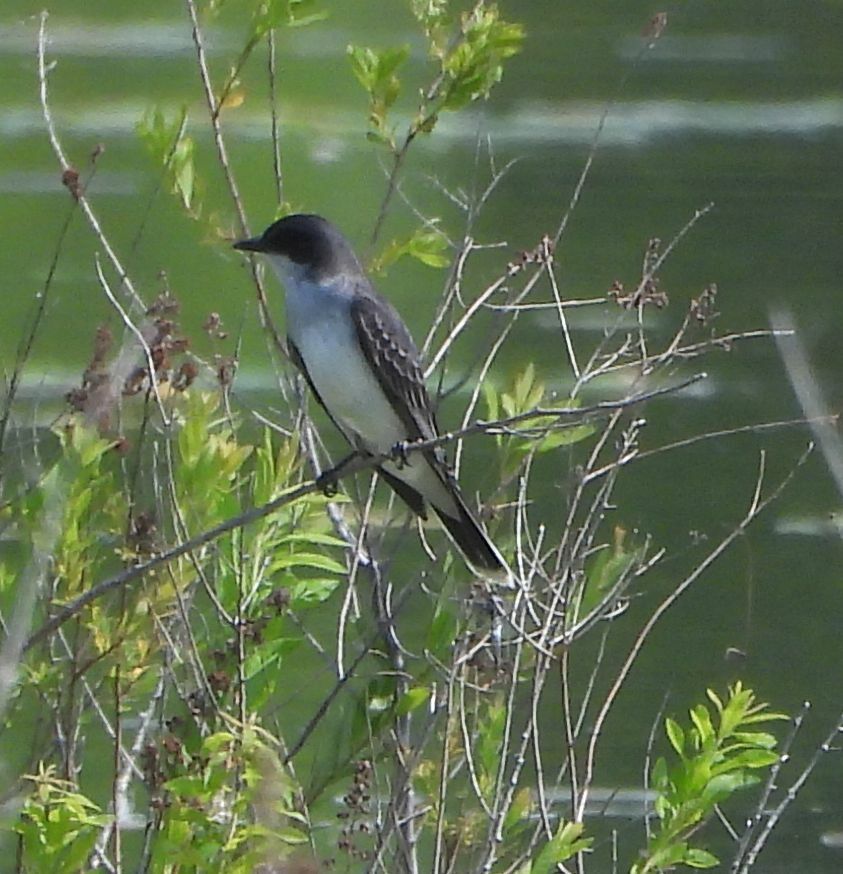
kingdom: Animalia
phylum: Chordata
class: Aves
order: Passeriformes
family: Tyrannidae
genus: Tyrannus
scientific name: Tyrannus tyrannus
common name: Eastern kingbird
